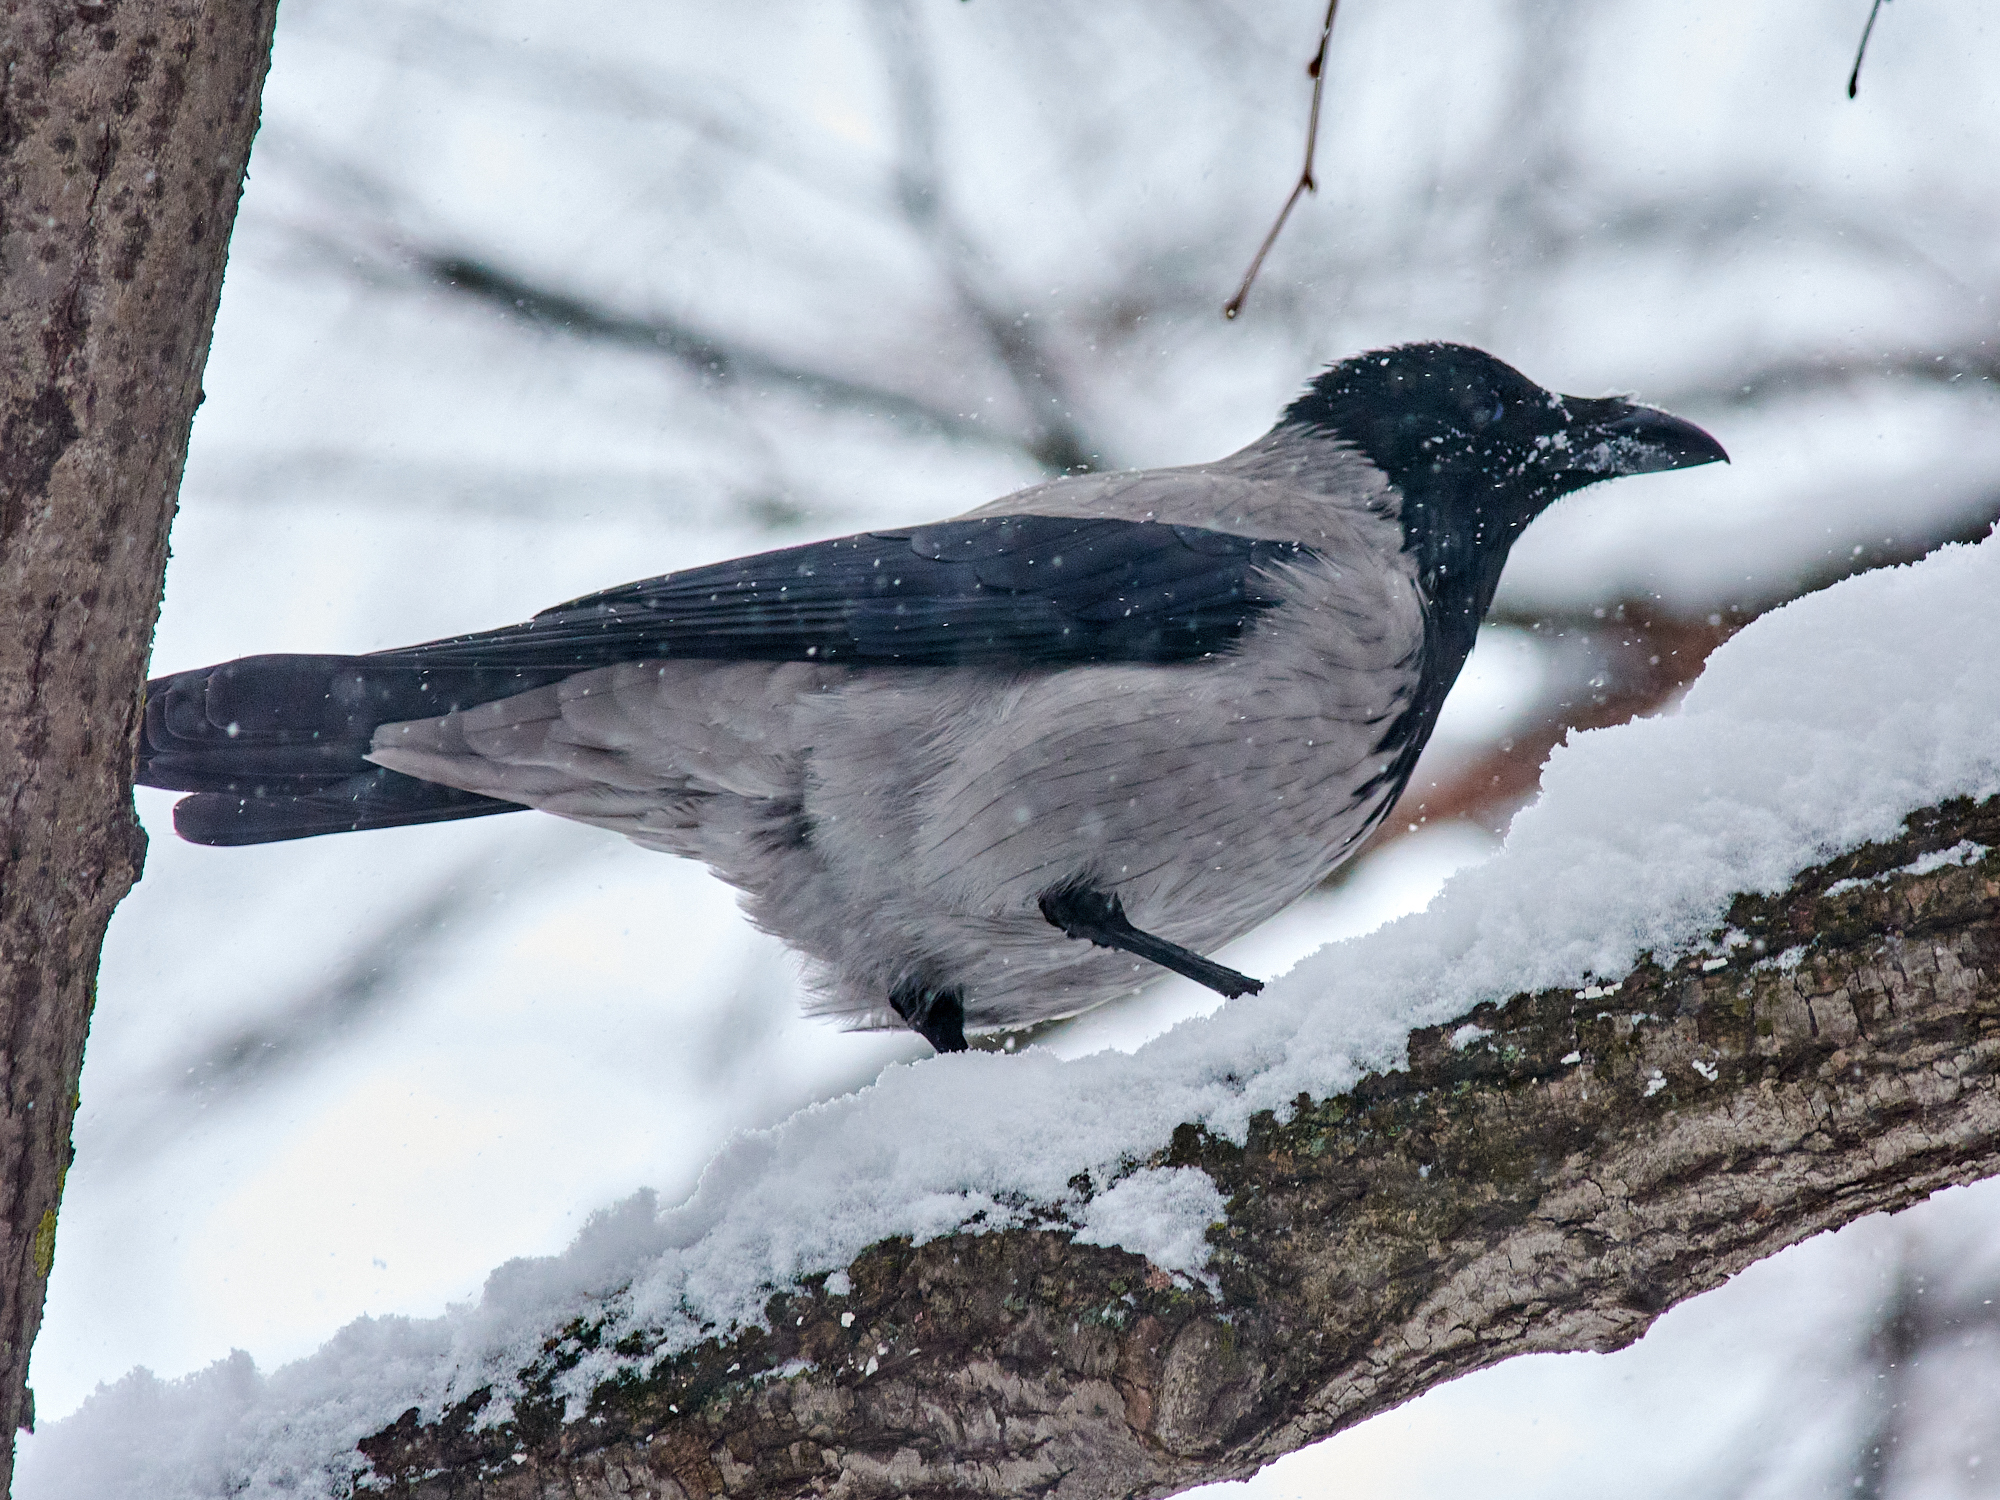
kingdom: Animalia
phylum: Chordata
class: Aves
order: Passeriformes
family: Corvidae
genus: Corvus
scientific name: Corvus cornix
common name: Hooded crow
